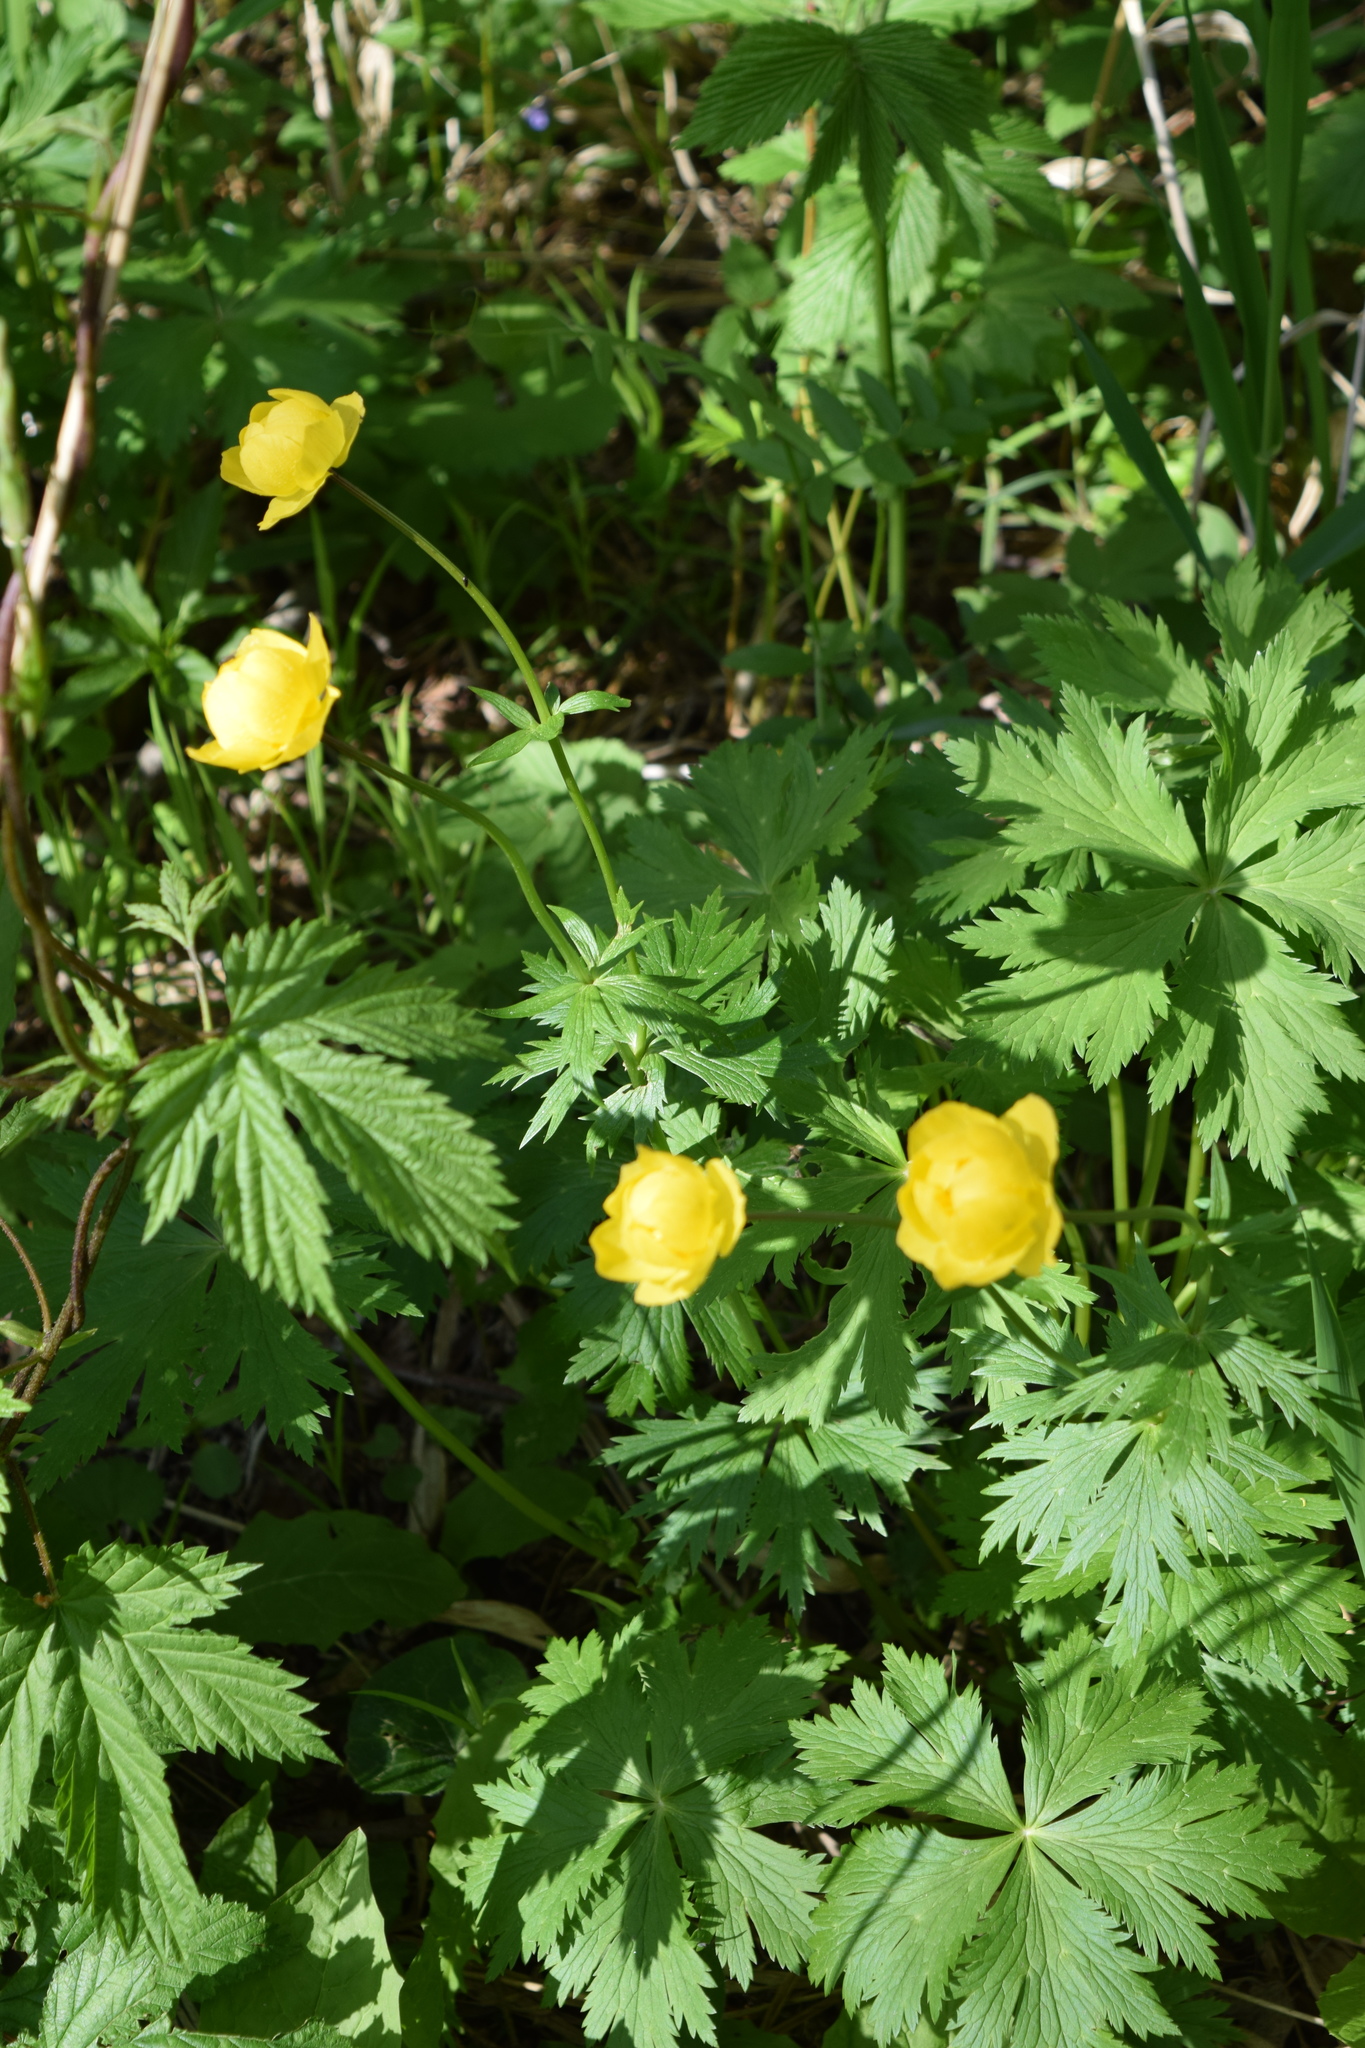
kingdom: Plantae
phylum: Tracheophyta
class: Magnoliopsida
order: Ranunculales
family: Ranunculaceae
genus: Trollius
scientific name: Trollius europaeus
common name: European globeflower
